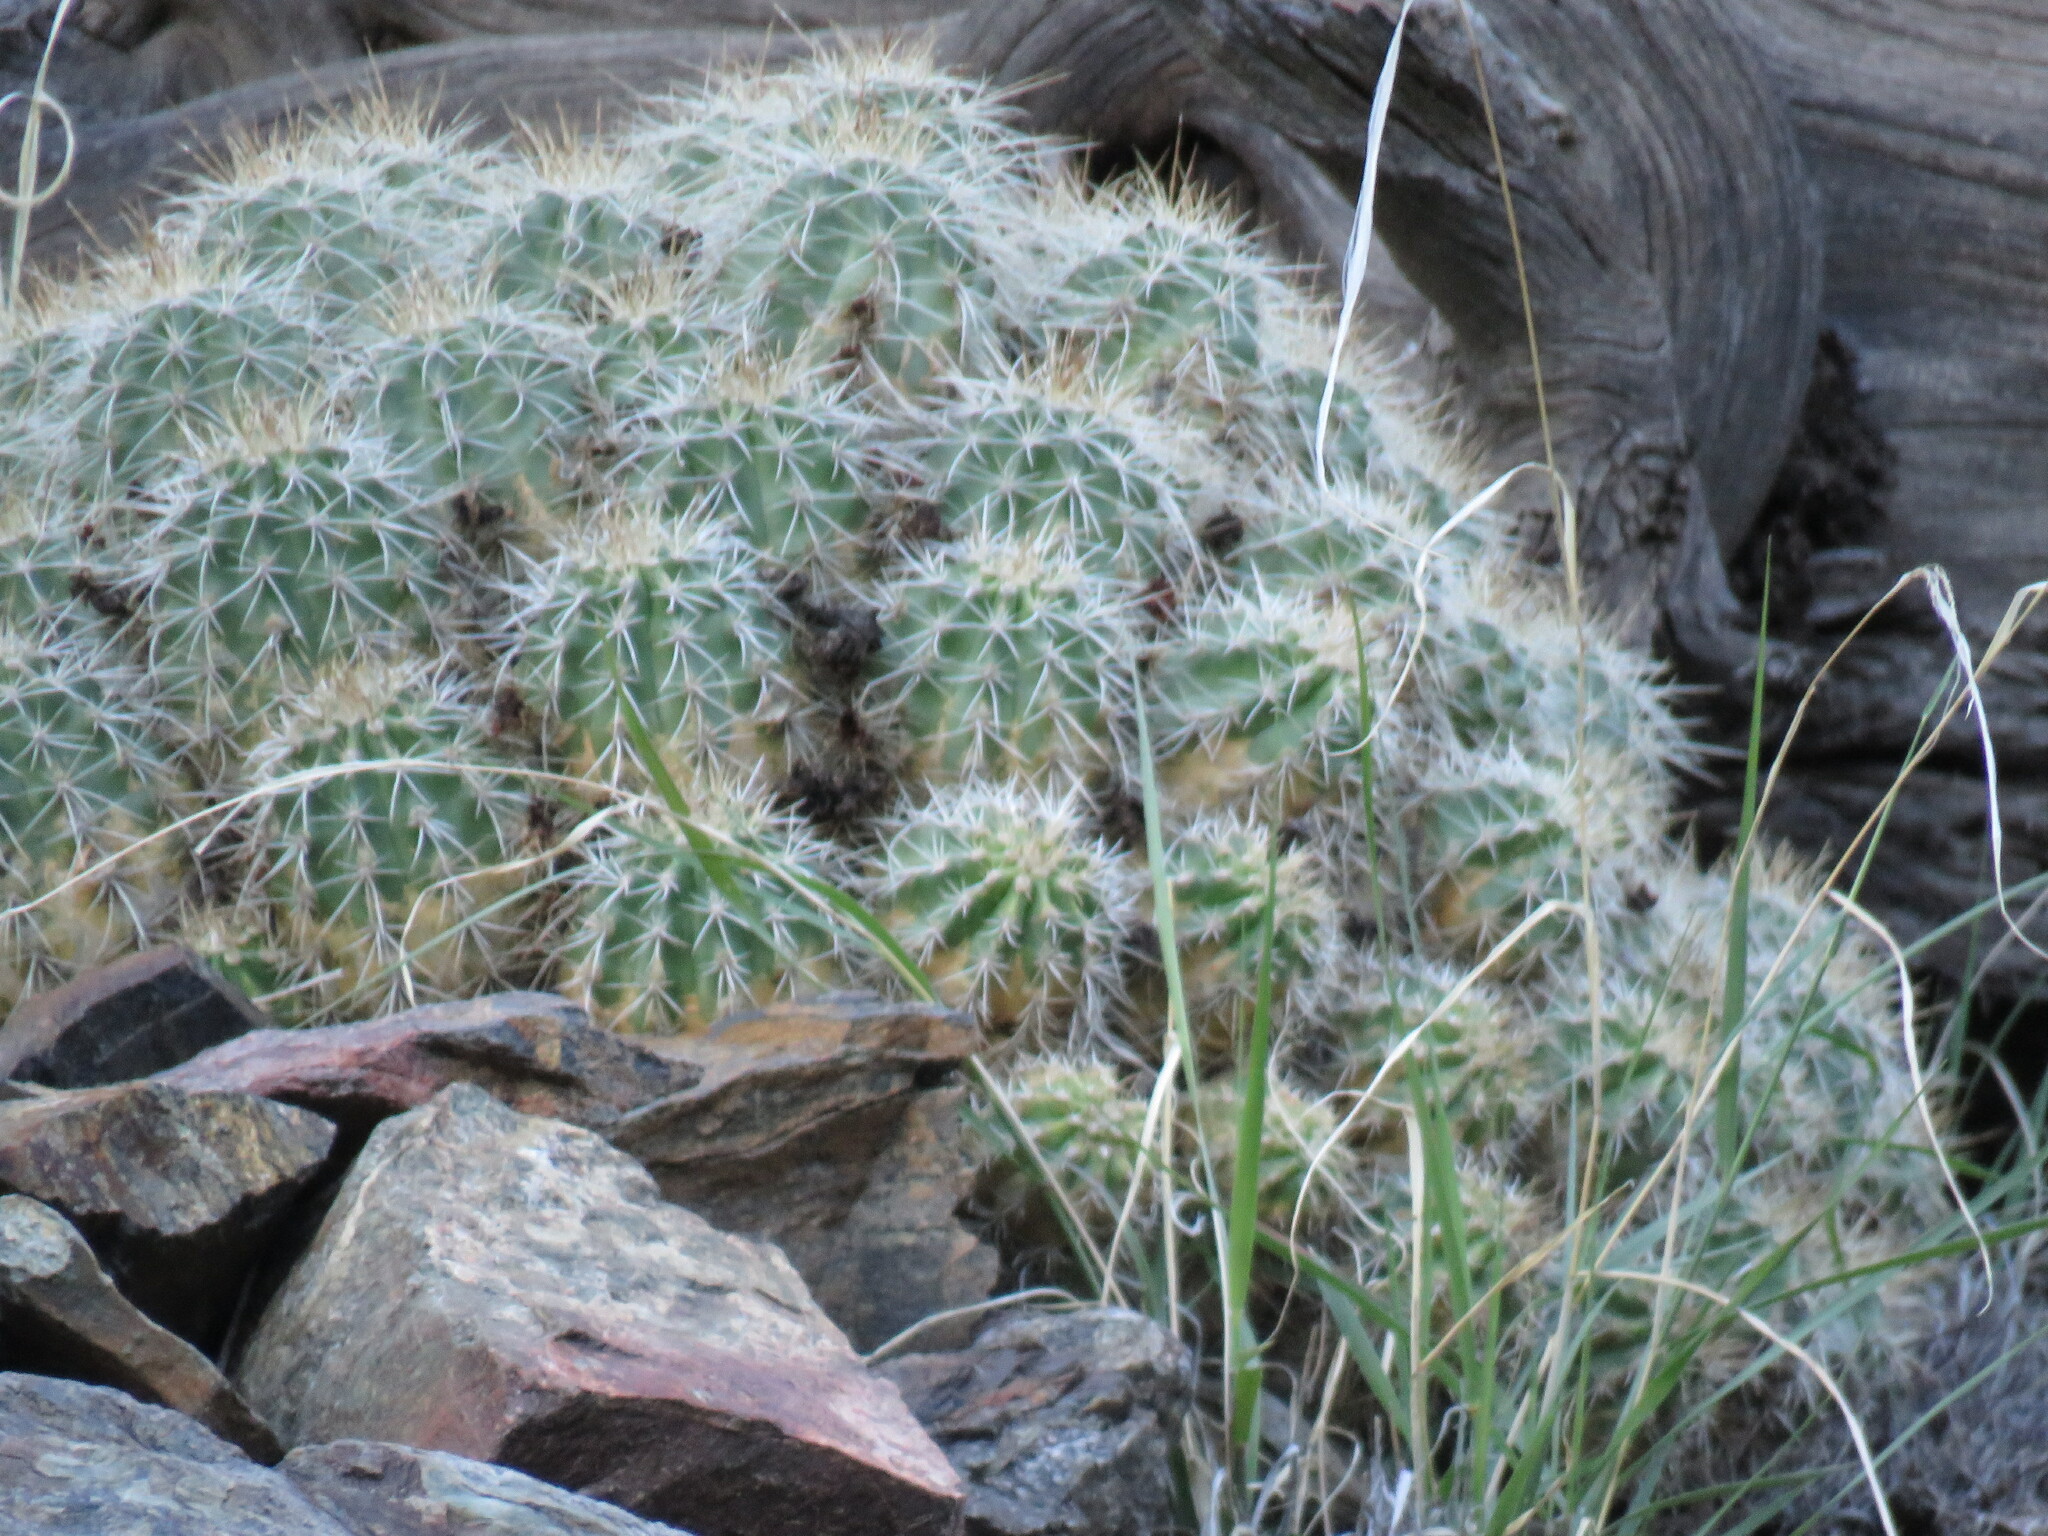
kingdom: Plantae
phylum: Tracheophyta
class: Magnoliopsida
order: Caryophyllales
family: Cactaceae
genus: Echinocereus
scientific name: Echinocereus coccineus
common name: Scarlet hedgehog cactus
